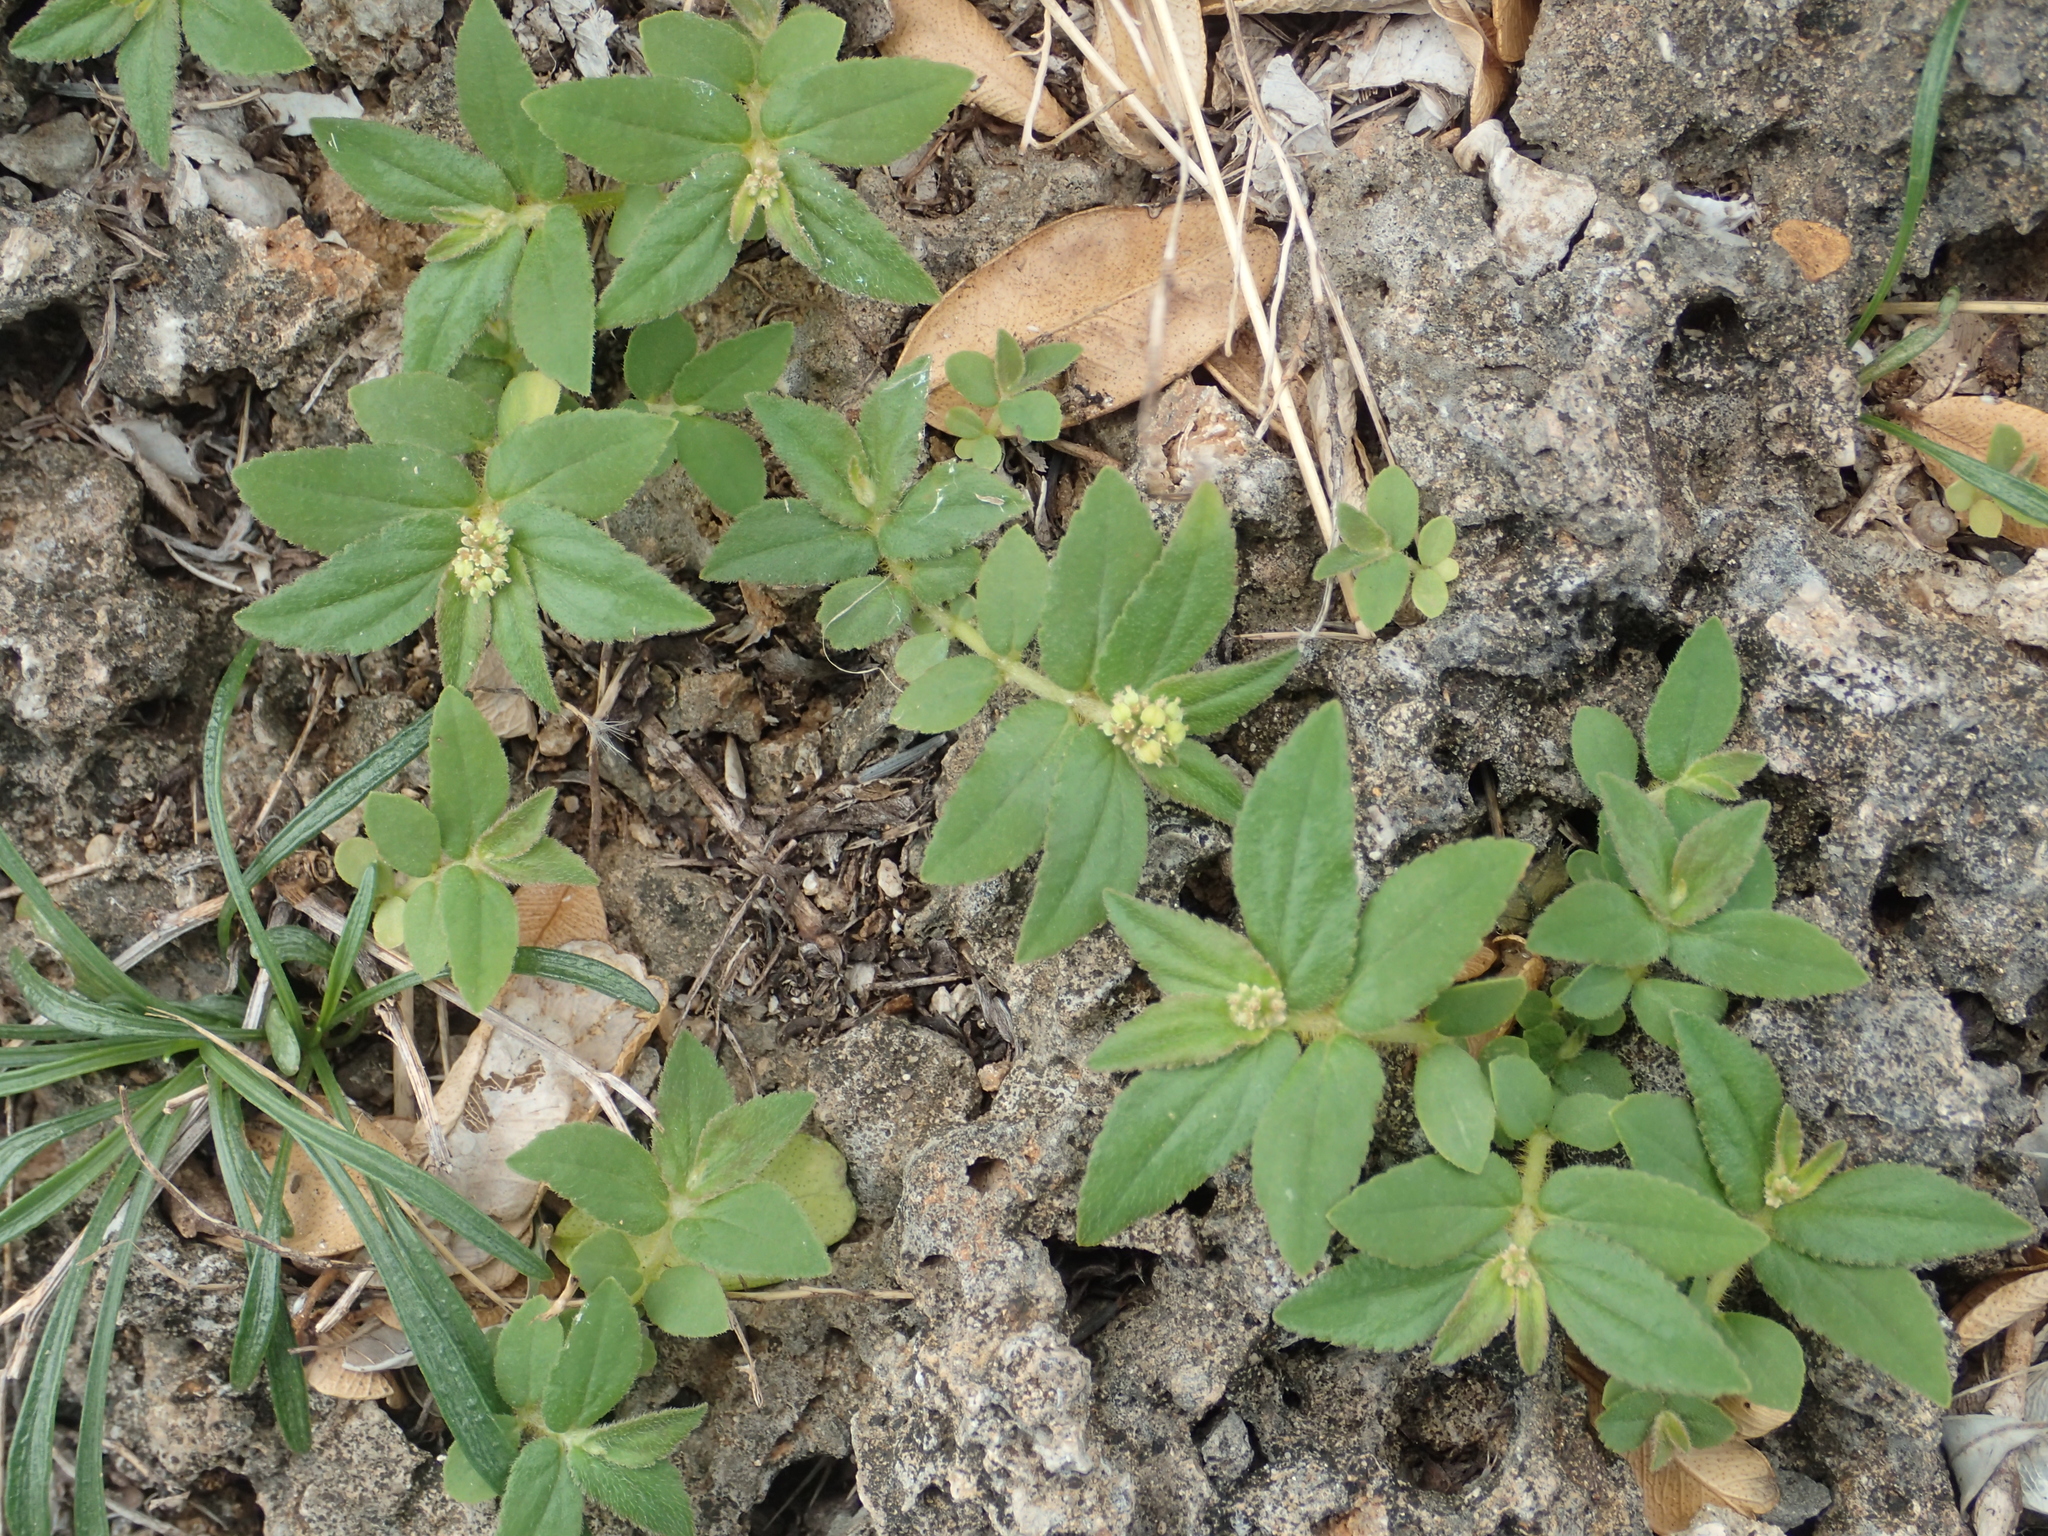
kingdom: Plantae
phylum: Tracheophyta
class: Magnoliopsida
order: Malpighiales
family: Euphorbiaceae
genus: Euphorbia
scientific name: Euphorbia hirta
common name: Pillpod sandmat
